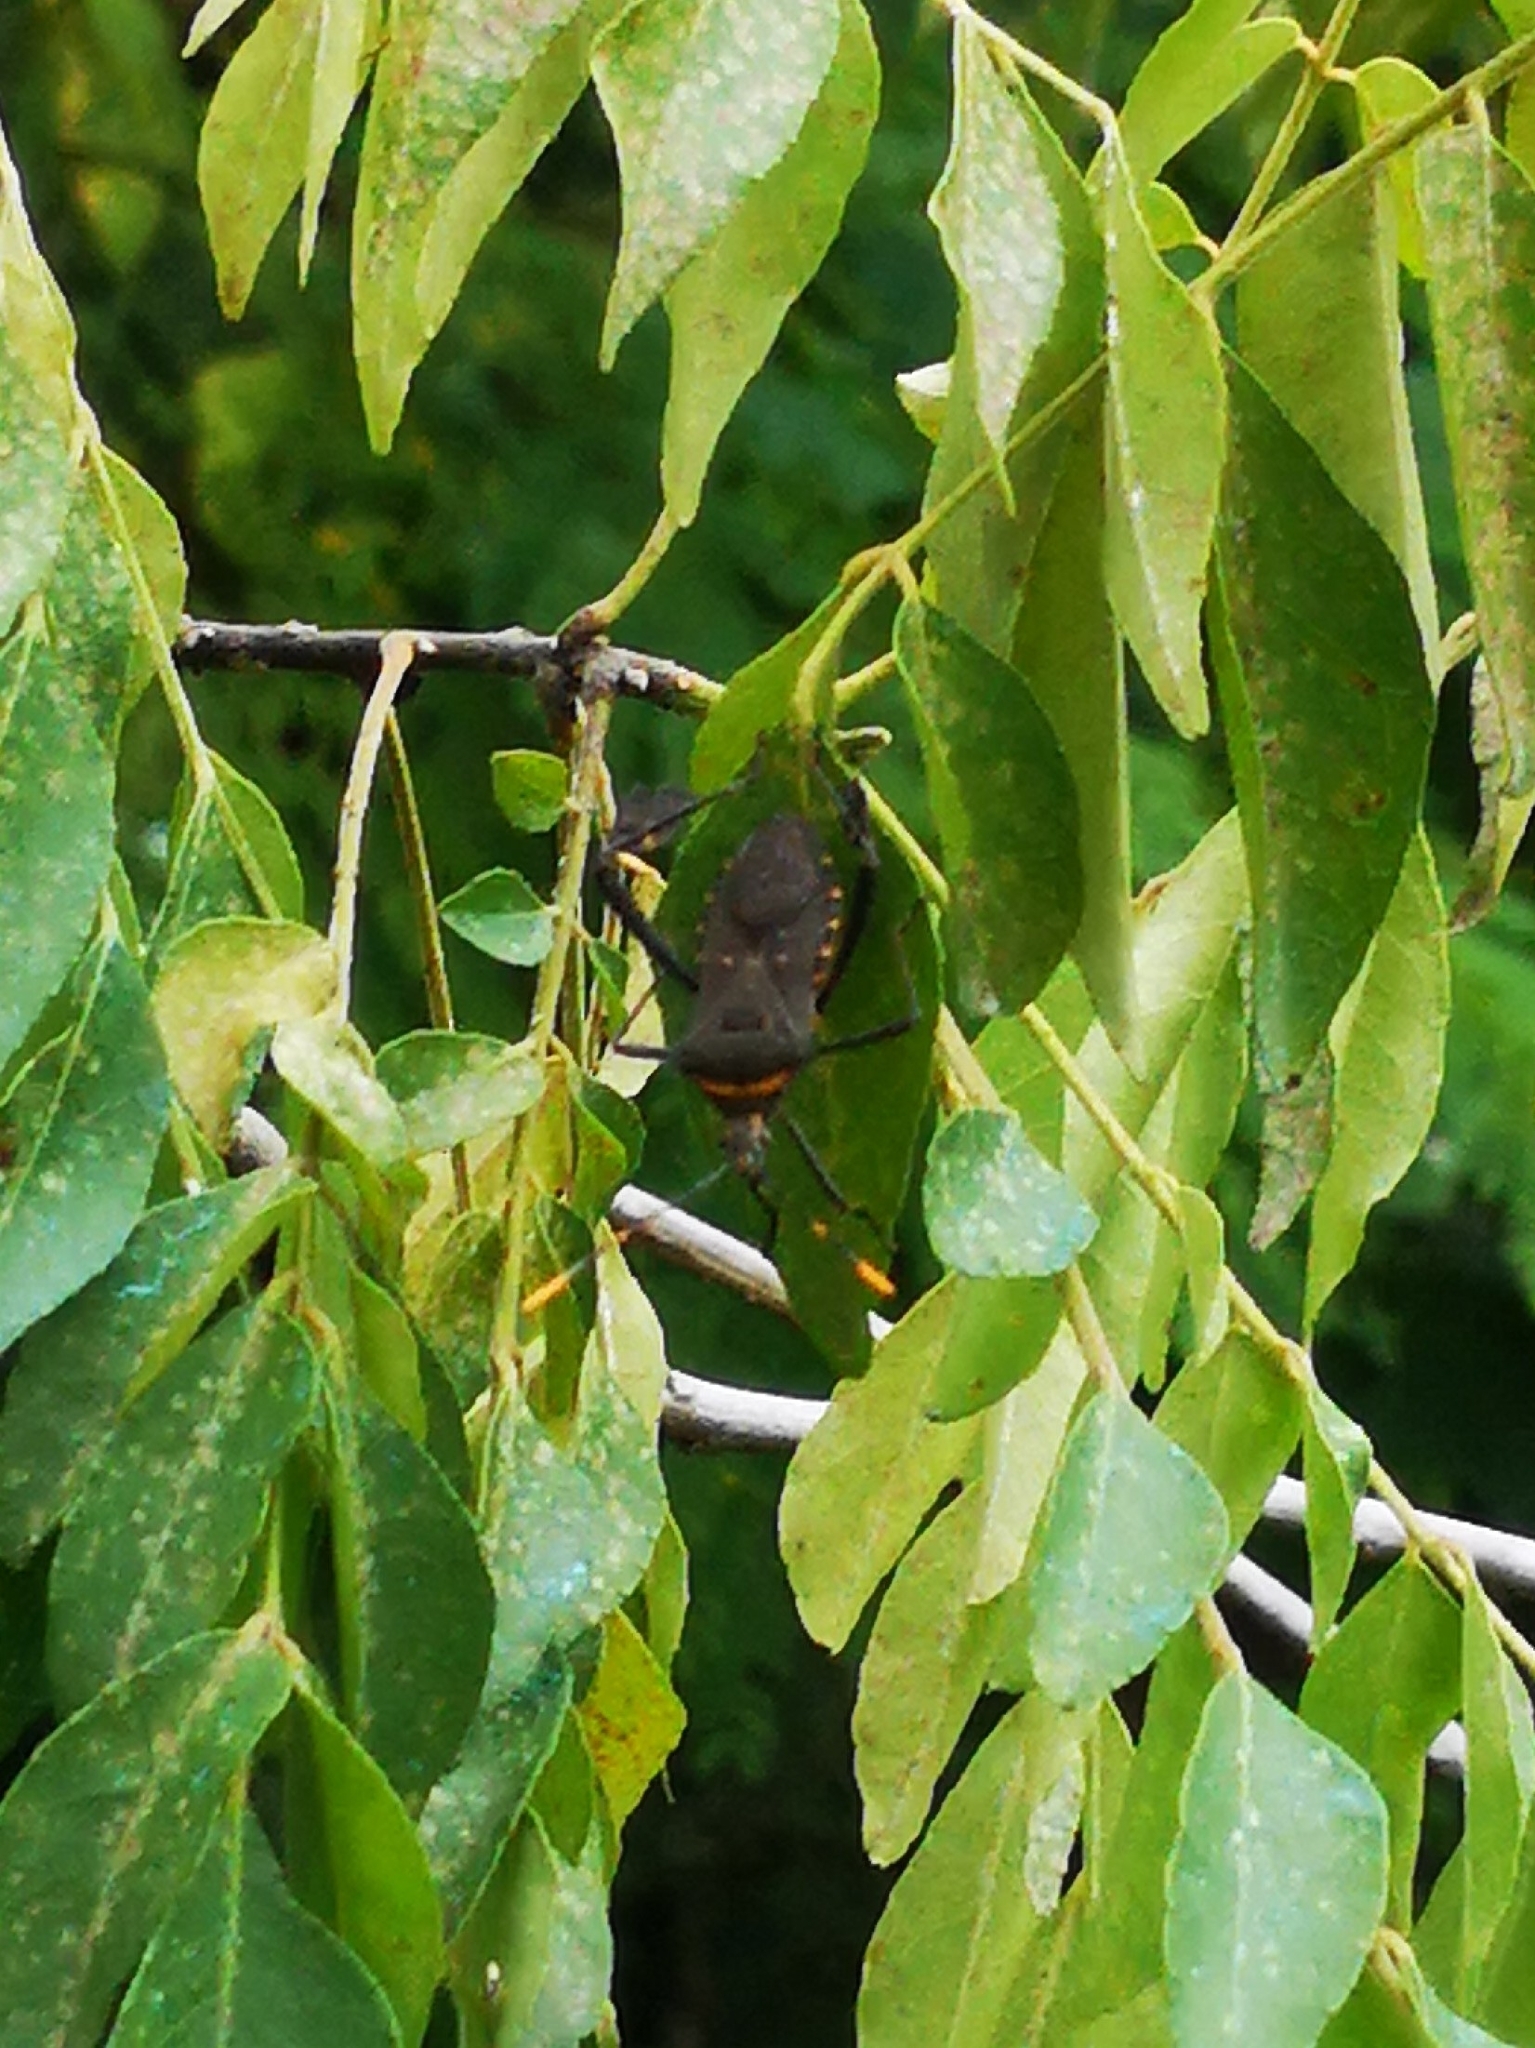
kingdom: Animalia
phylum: Arthropoda
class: Insecta
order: Hemiptera
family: Coreidae
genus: Leptoglossus
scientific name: Leptoglossus gonagra
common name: Citron bug
